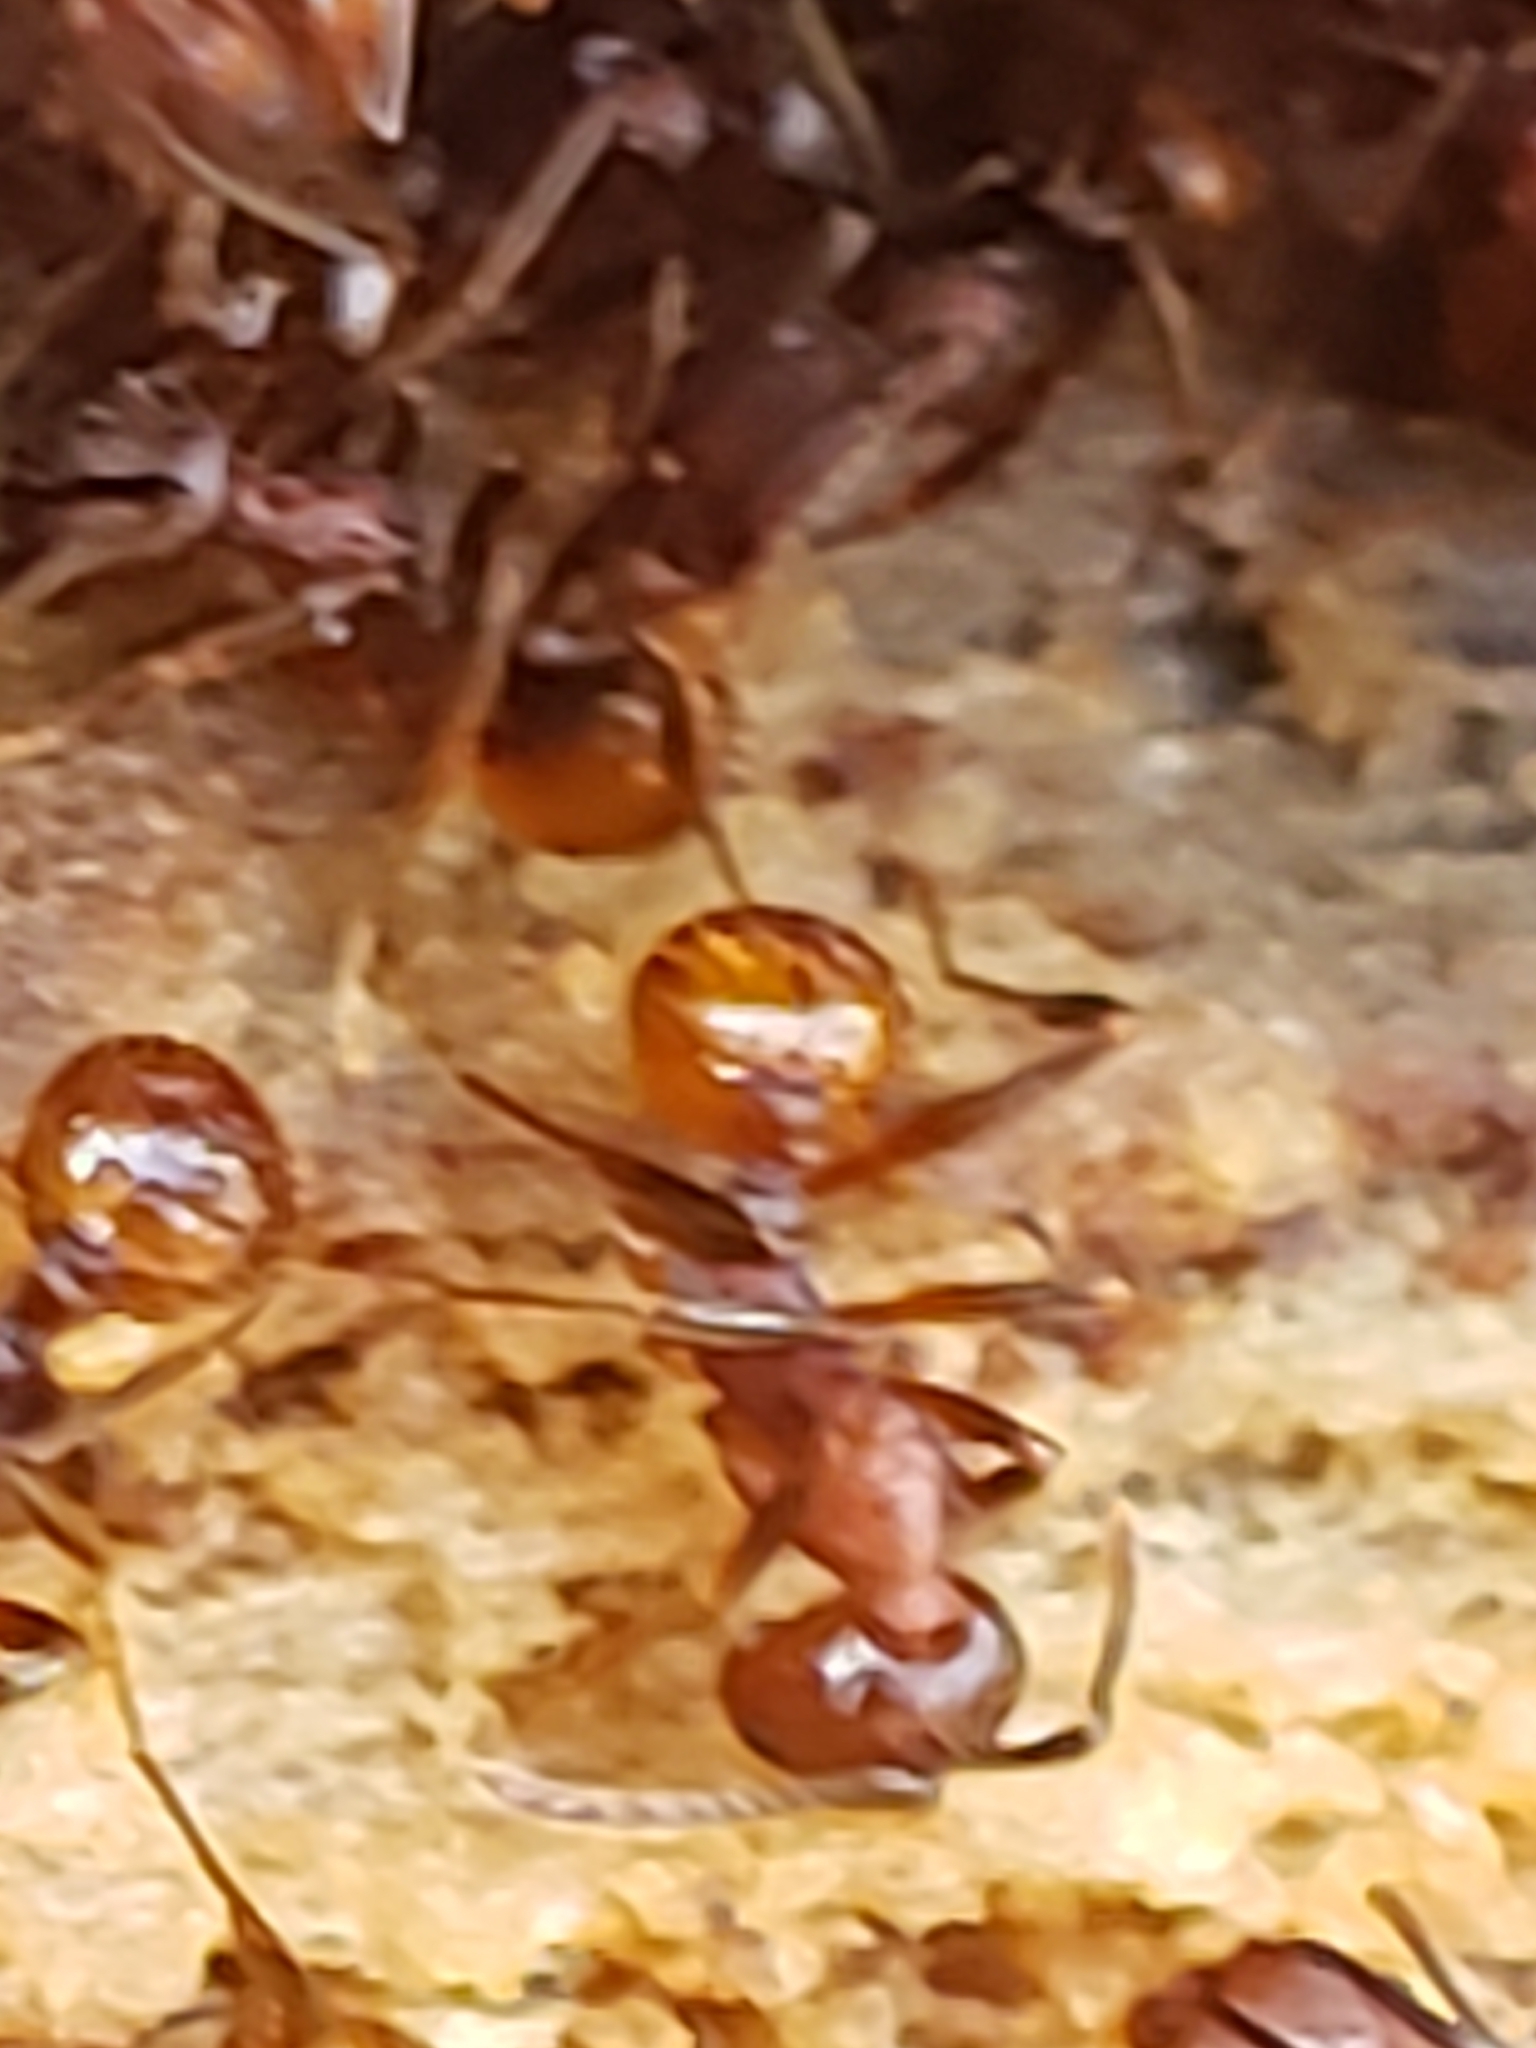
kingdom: Animalia
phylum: Arthropoda
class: Insecta
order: Hymenoptera
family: Formicidae
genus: Aphaenogaster
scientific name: Aphaenogaster fulva
